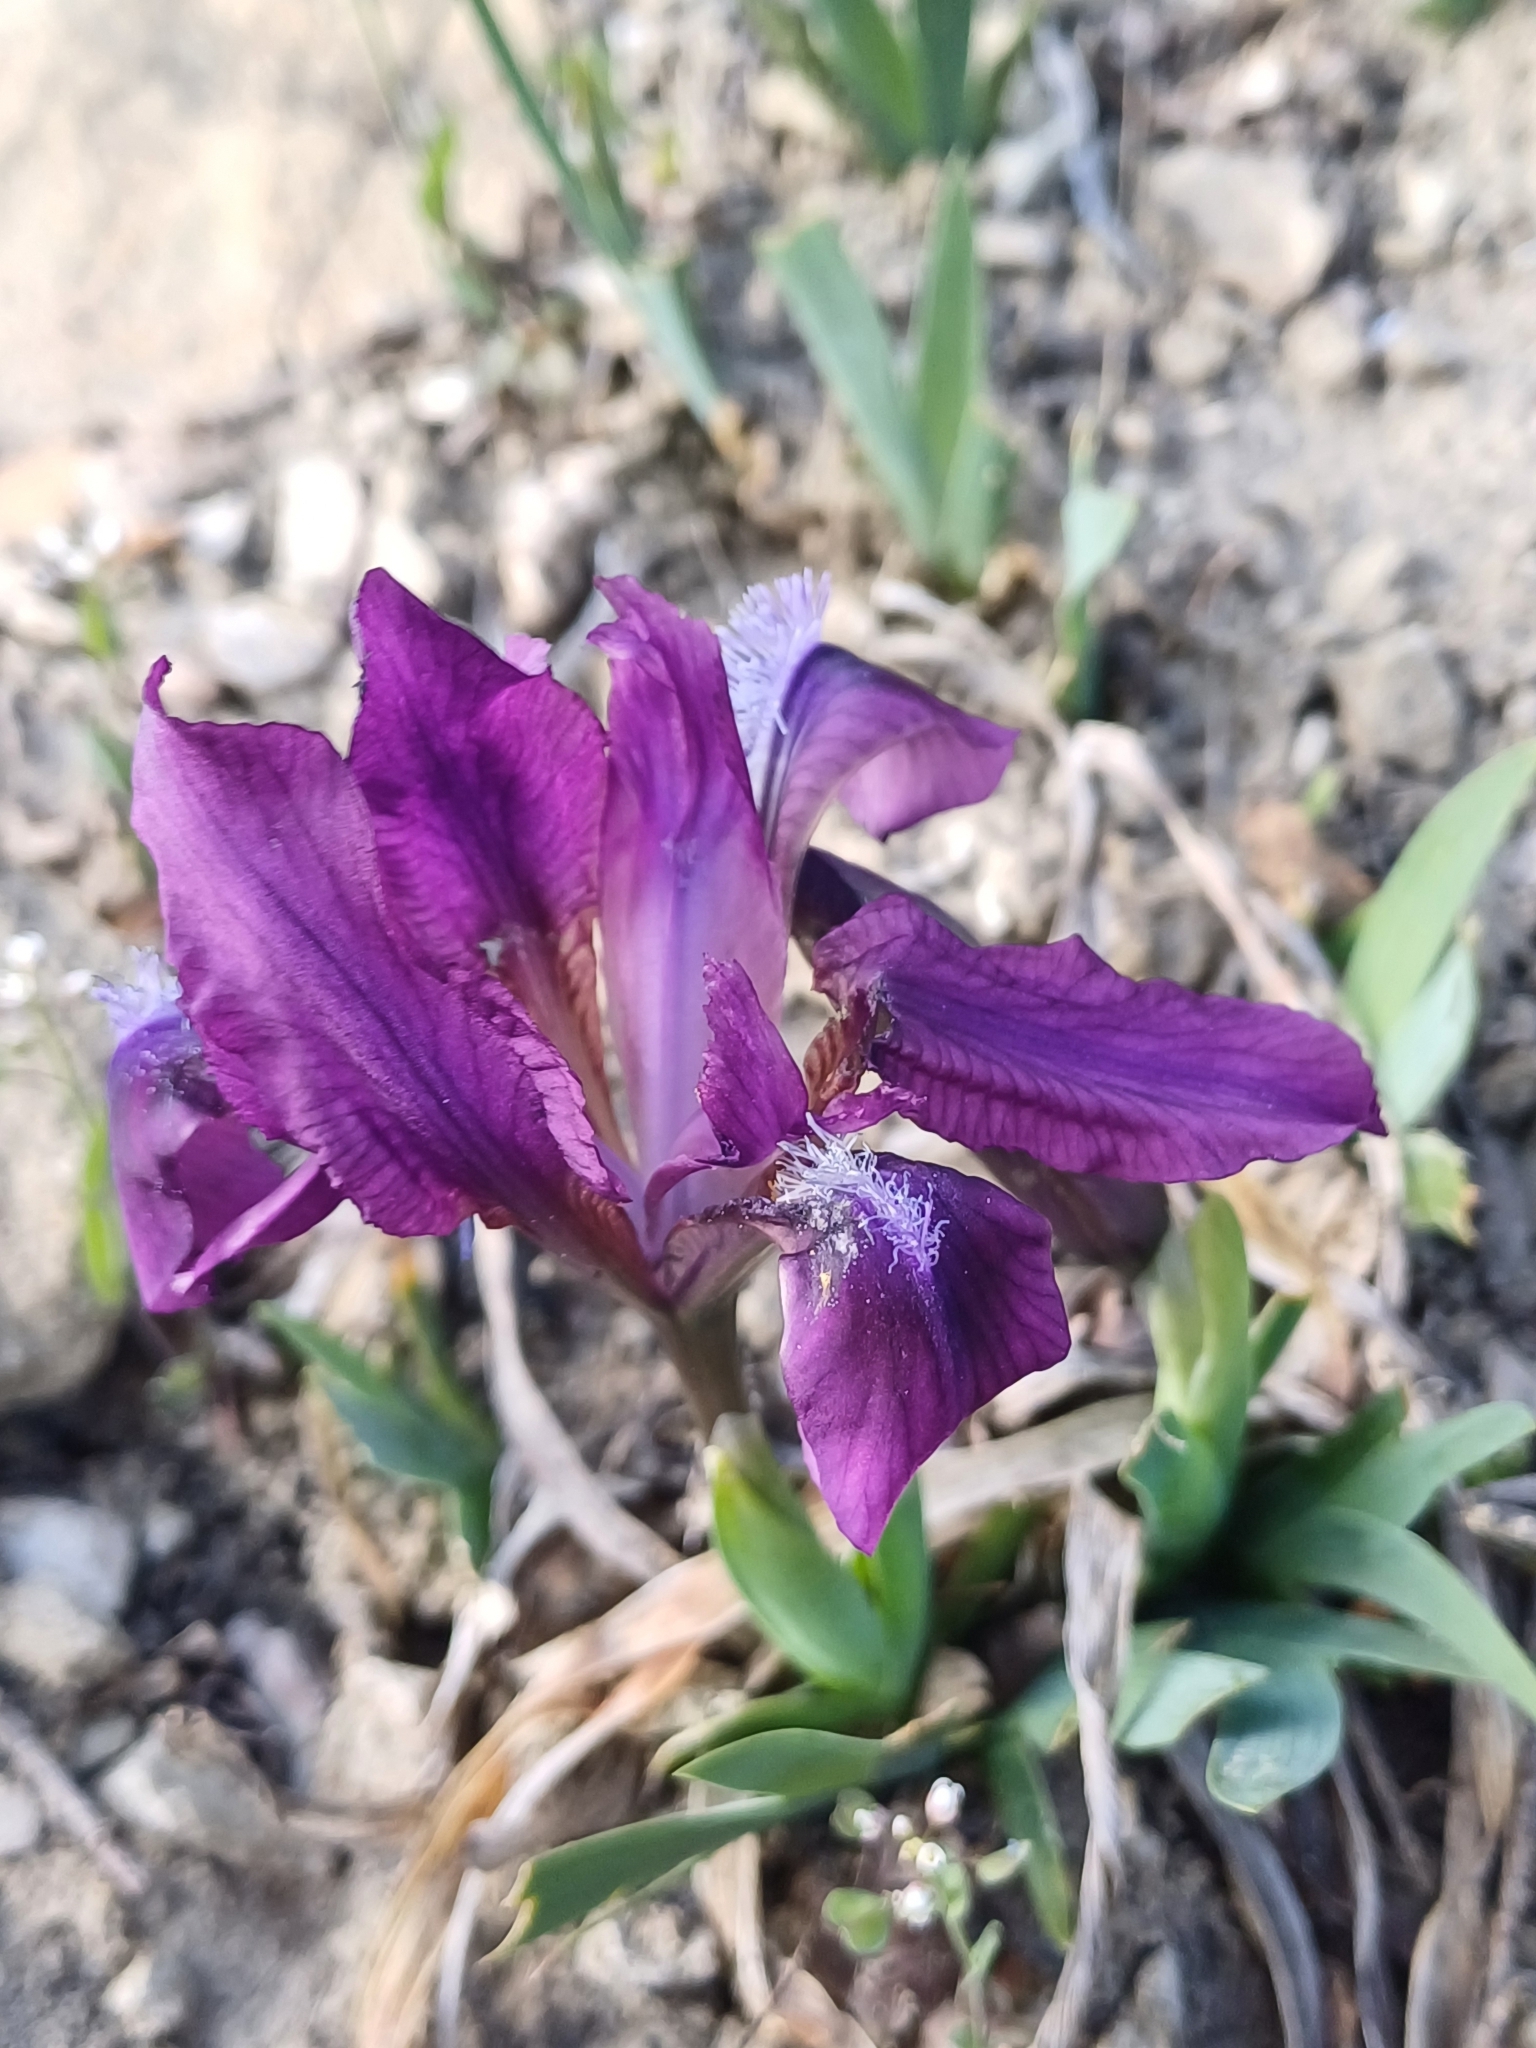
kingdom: Plantae
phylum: Tracheophyta
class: Liliopsida
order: Asparagales
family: Iridaceae
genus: Iris
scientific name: Iris pumila
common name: Dwarf iris
